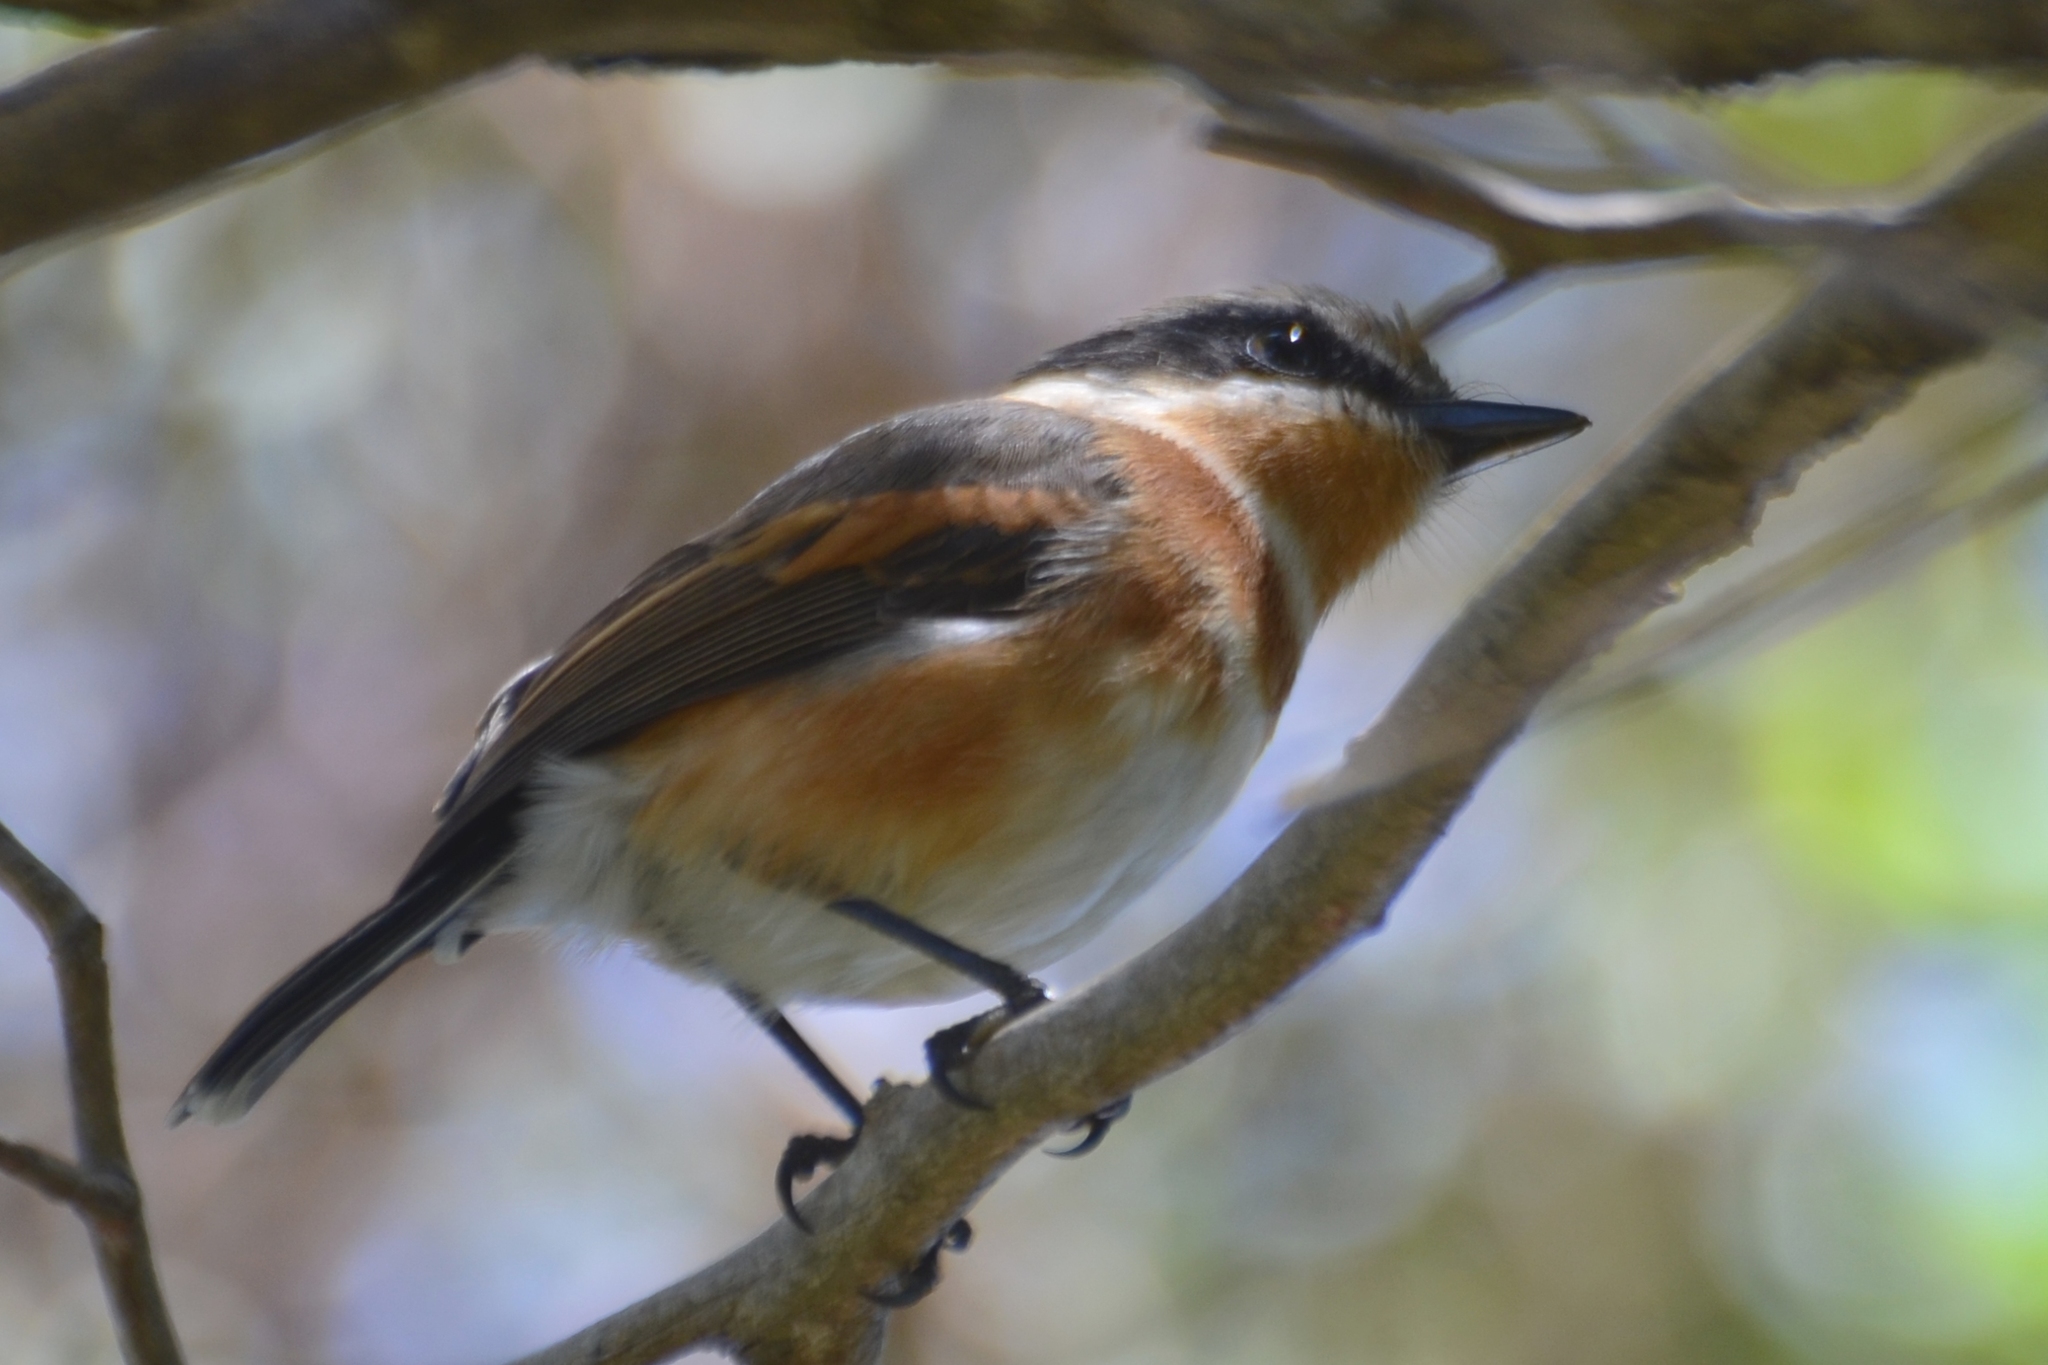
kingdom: Animalia
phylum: Chordata
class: Aves
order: Passeriformes
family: Platysteiridae
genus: Batis
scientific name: Batis capensis
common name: Cape batis
